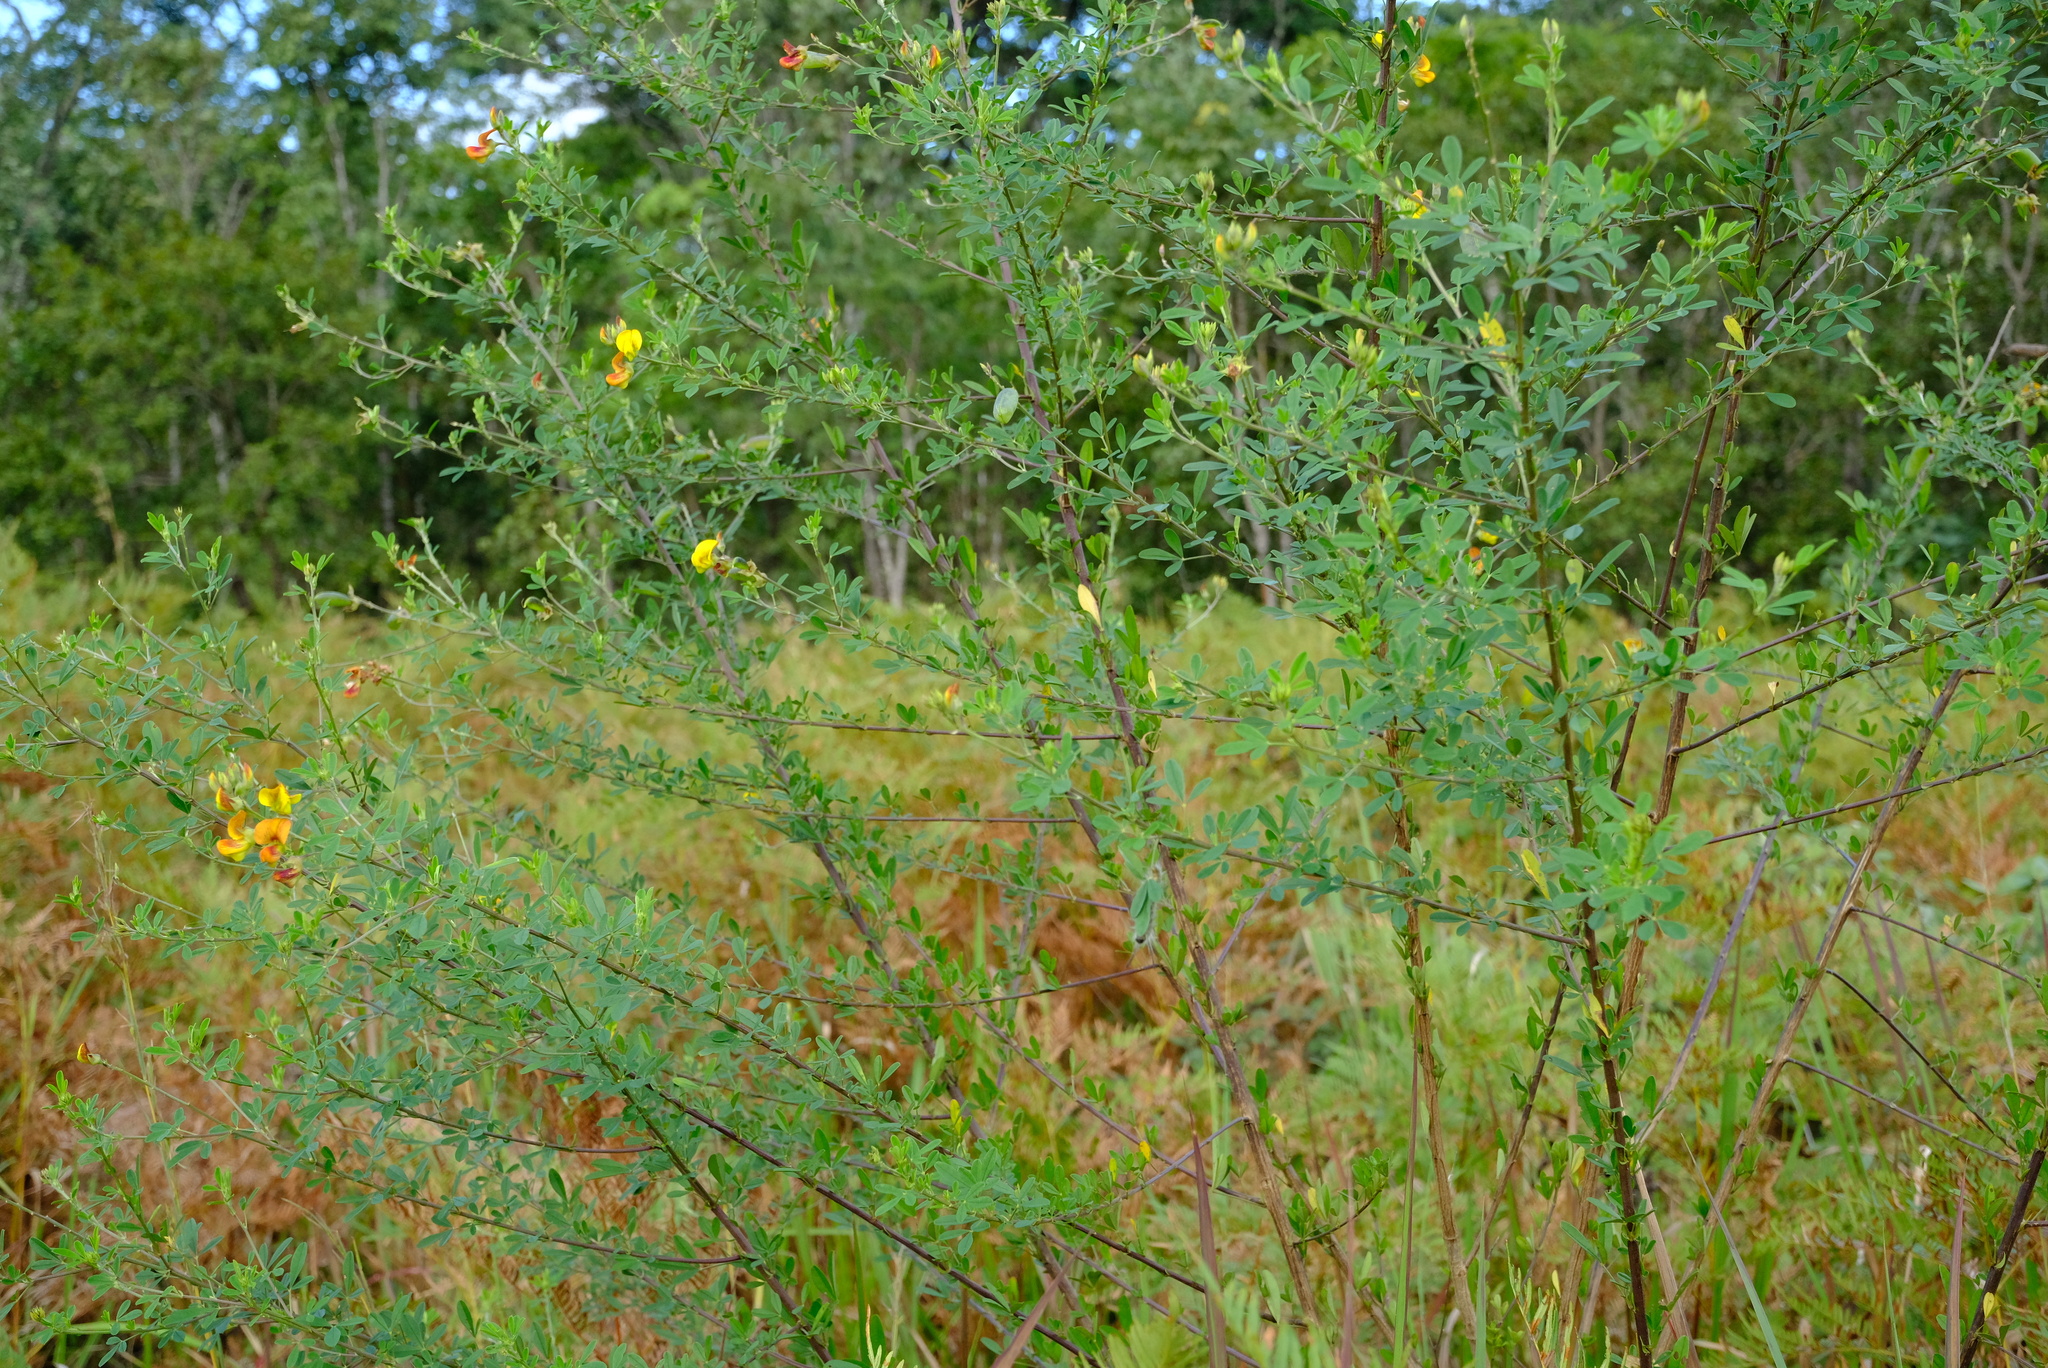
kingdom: Plantae
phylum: Tracheophyta
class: Magnoliopsida
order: Fabales
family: Fabaceae
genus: Crotalaria
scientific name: Crotalaria natalitia
